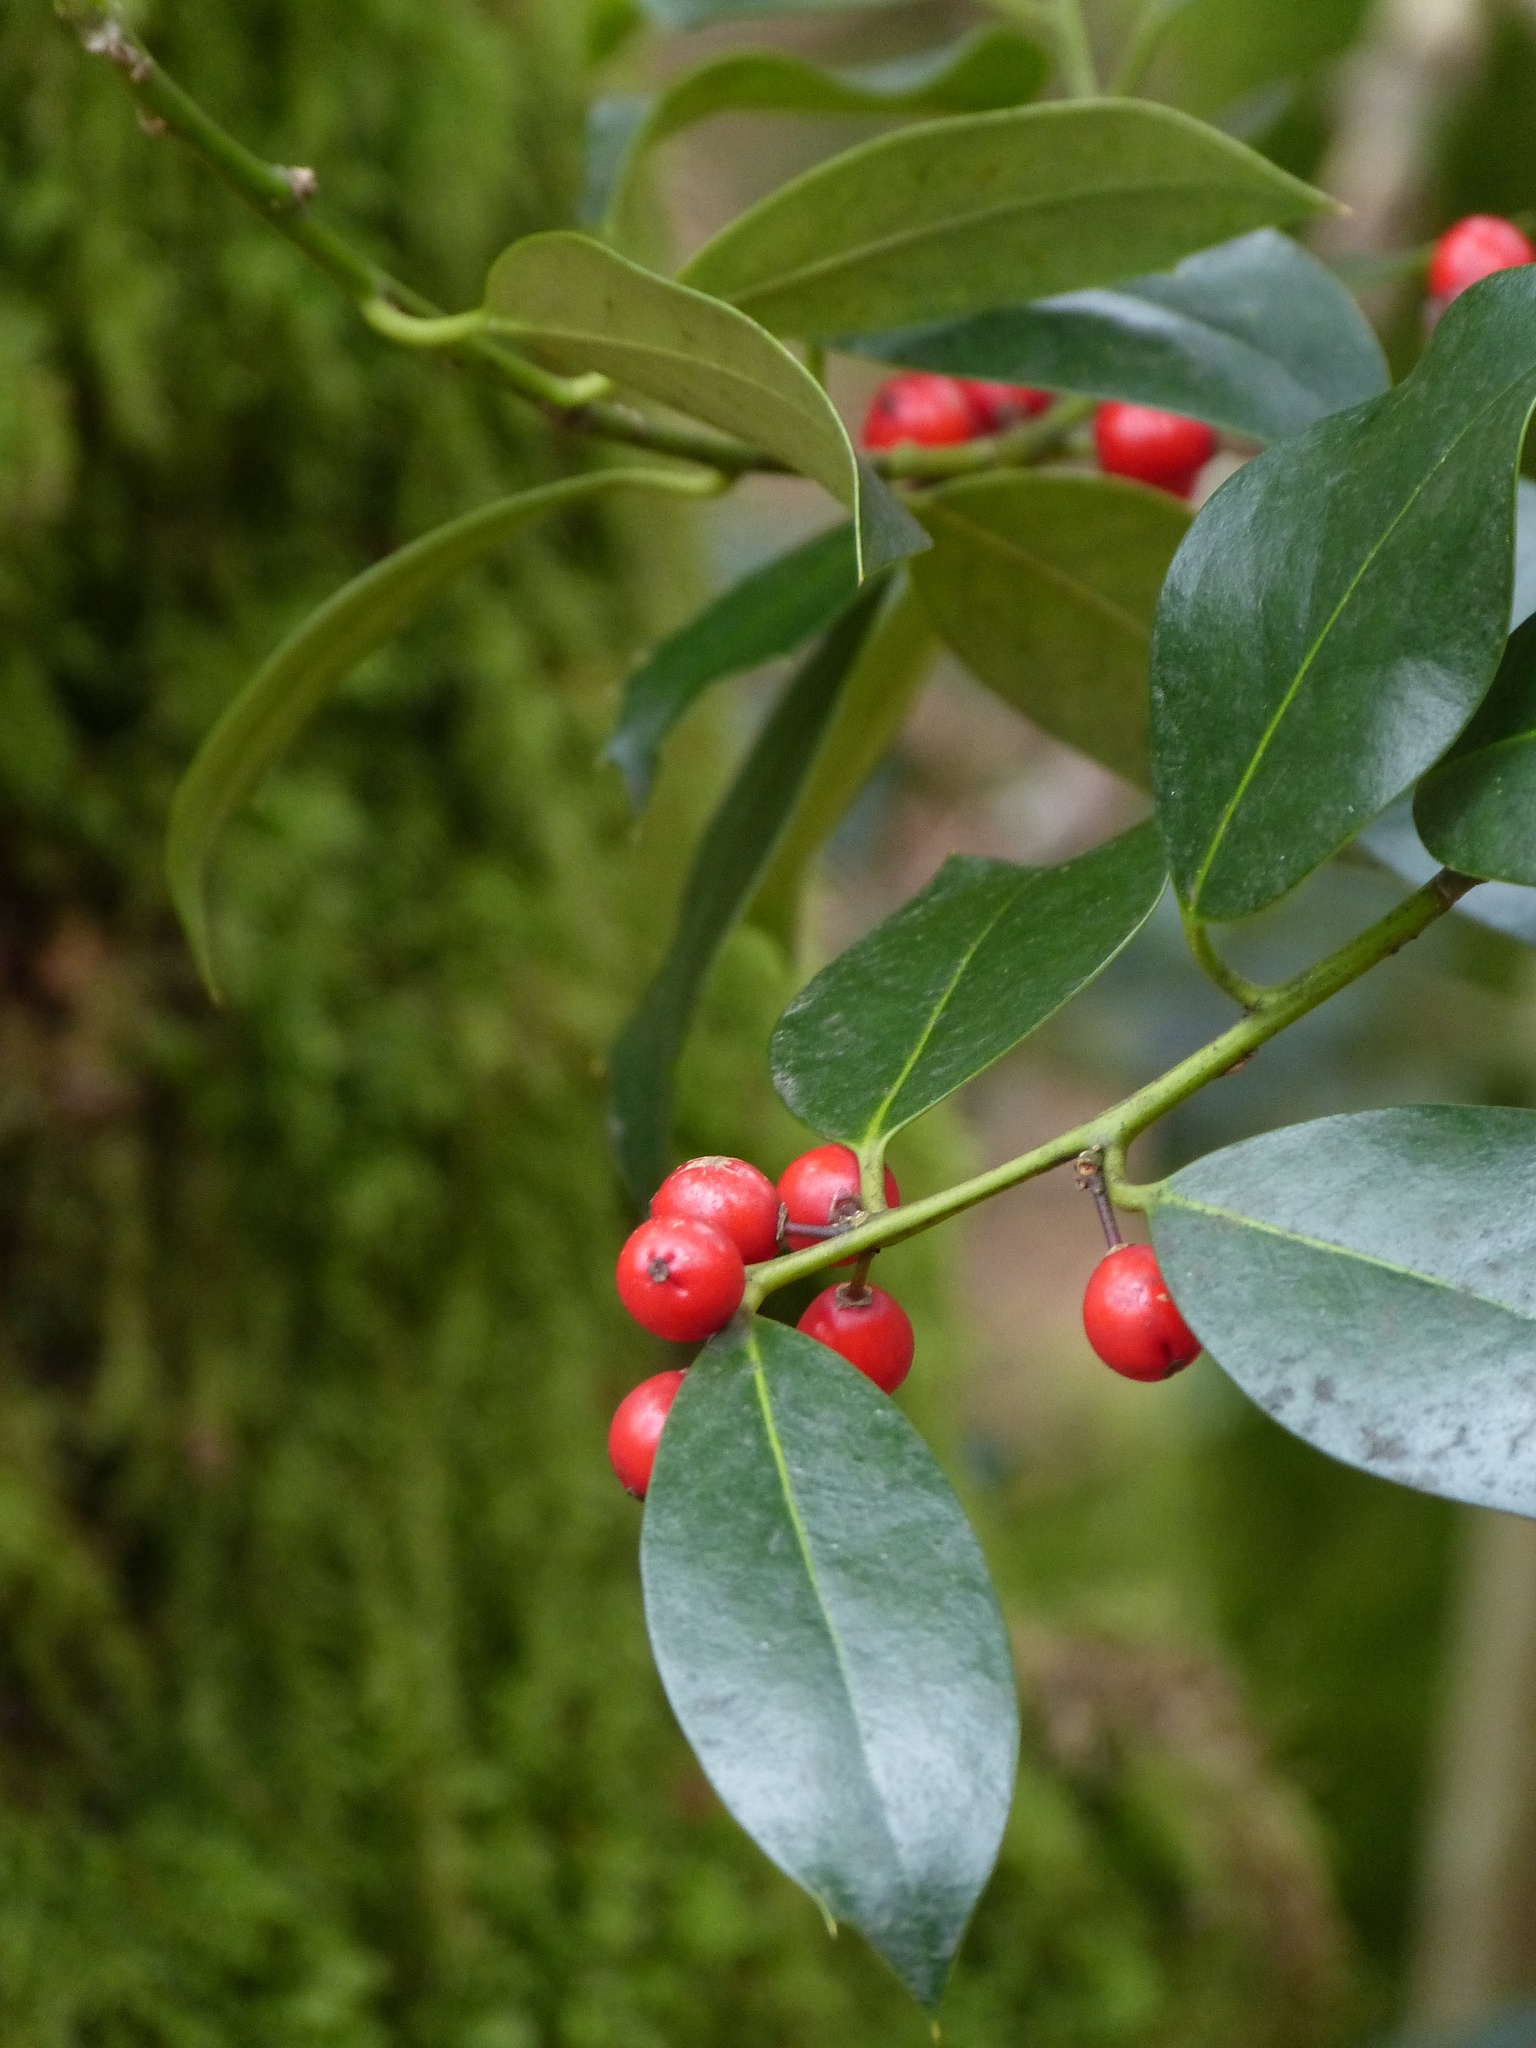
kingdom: Plantae
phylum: Tracheophyta
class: Magnoliopsida
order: Aquifoliales
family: Aquifoliaceae
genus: Ilex
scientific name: Ilex aquifolium
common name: English holly
